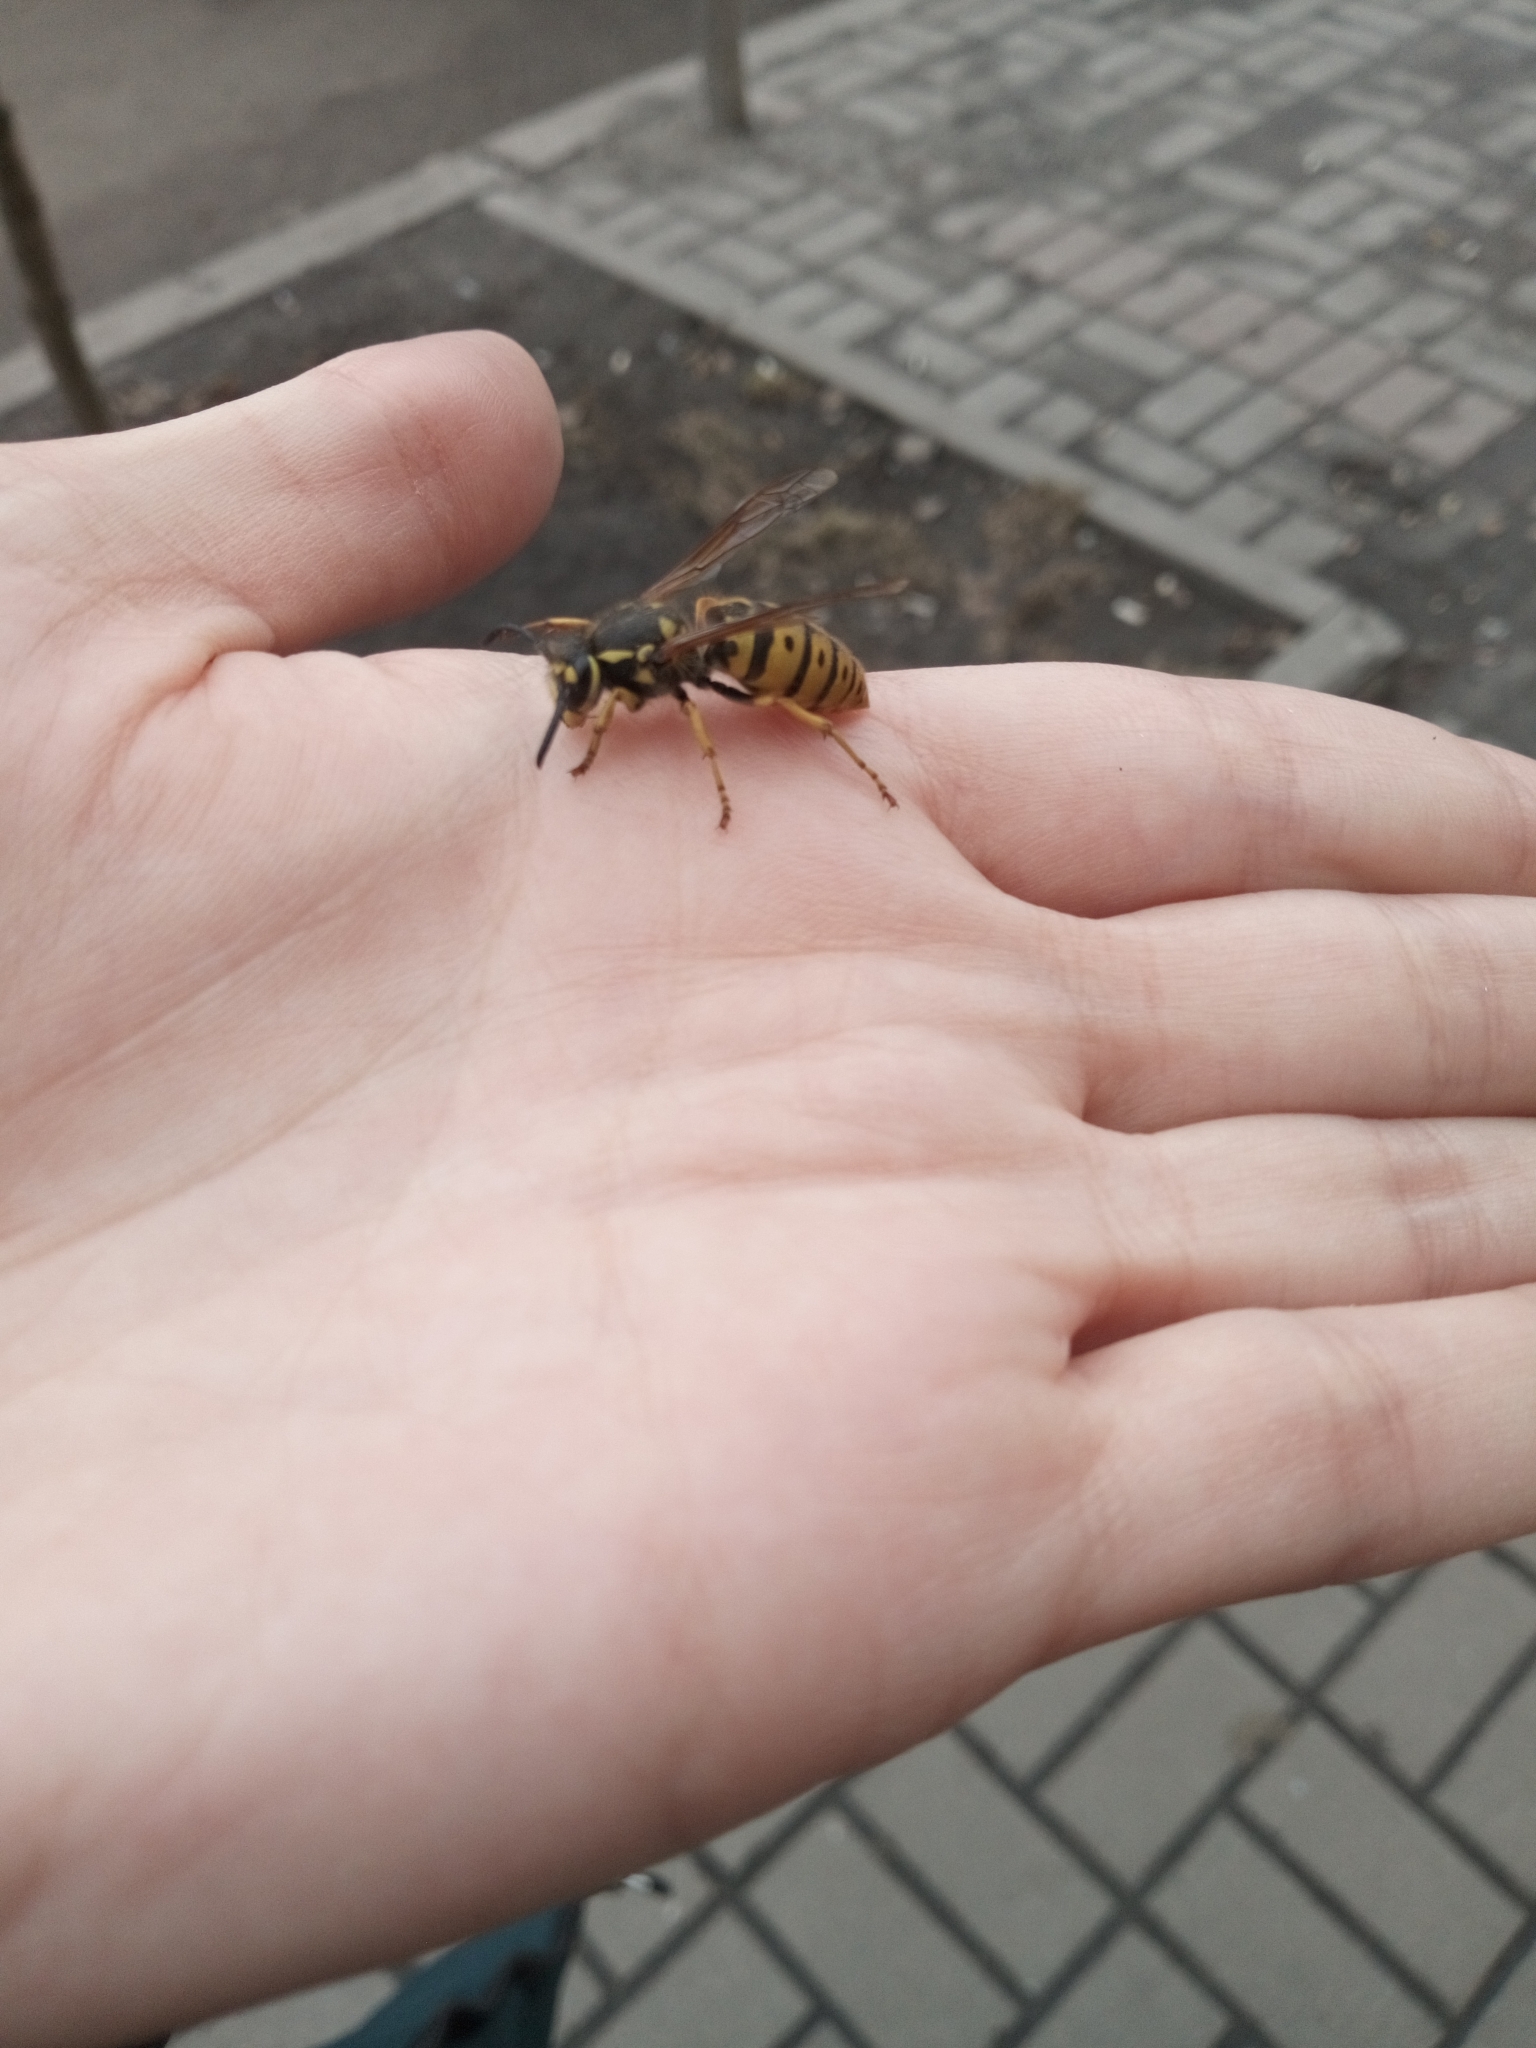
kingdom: Animalia
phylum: Arthropoda
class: Insecta
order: Hymenoptera
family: Vespidae
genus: Vespula
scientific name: Vespula germanica
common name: German wasp
